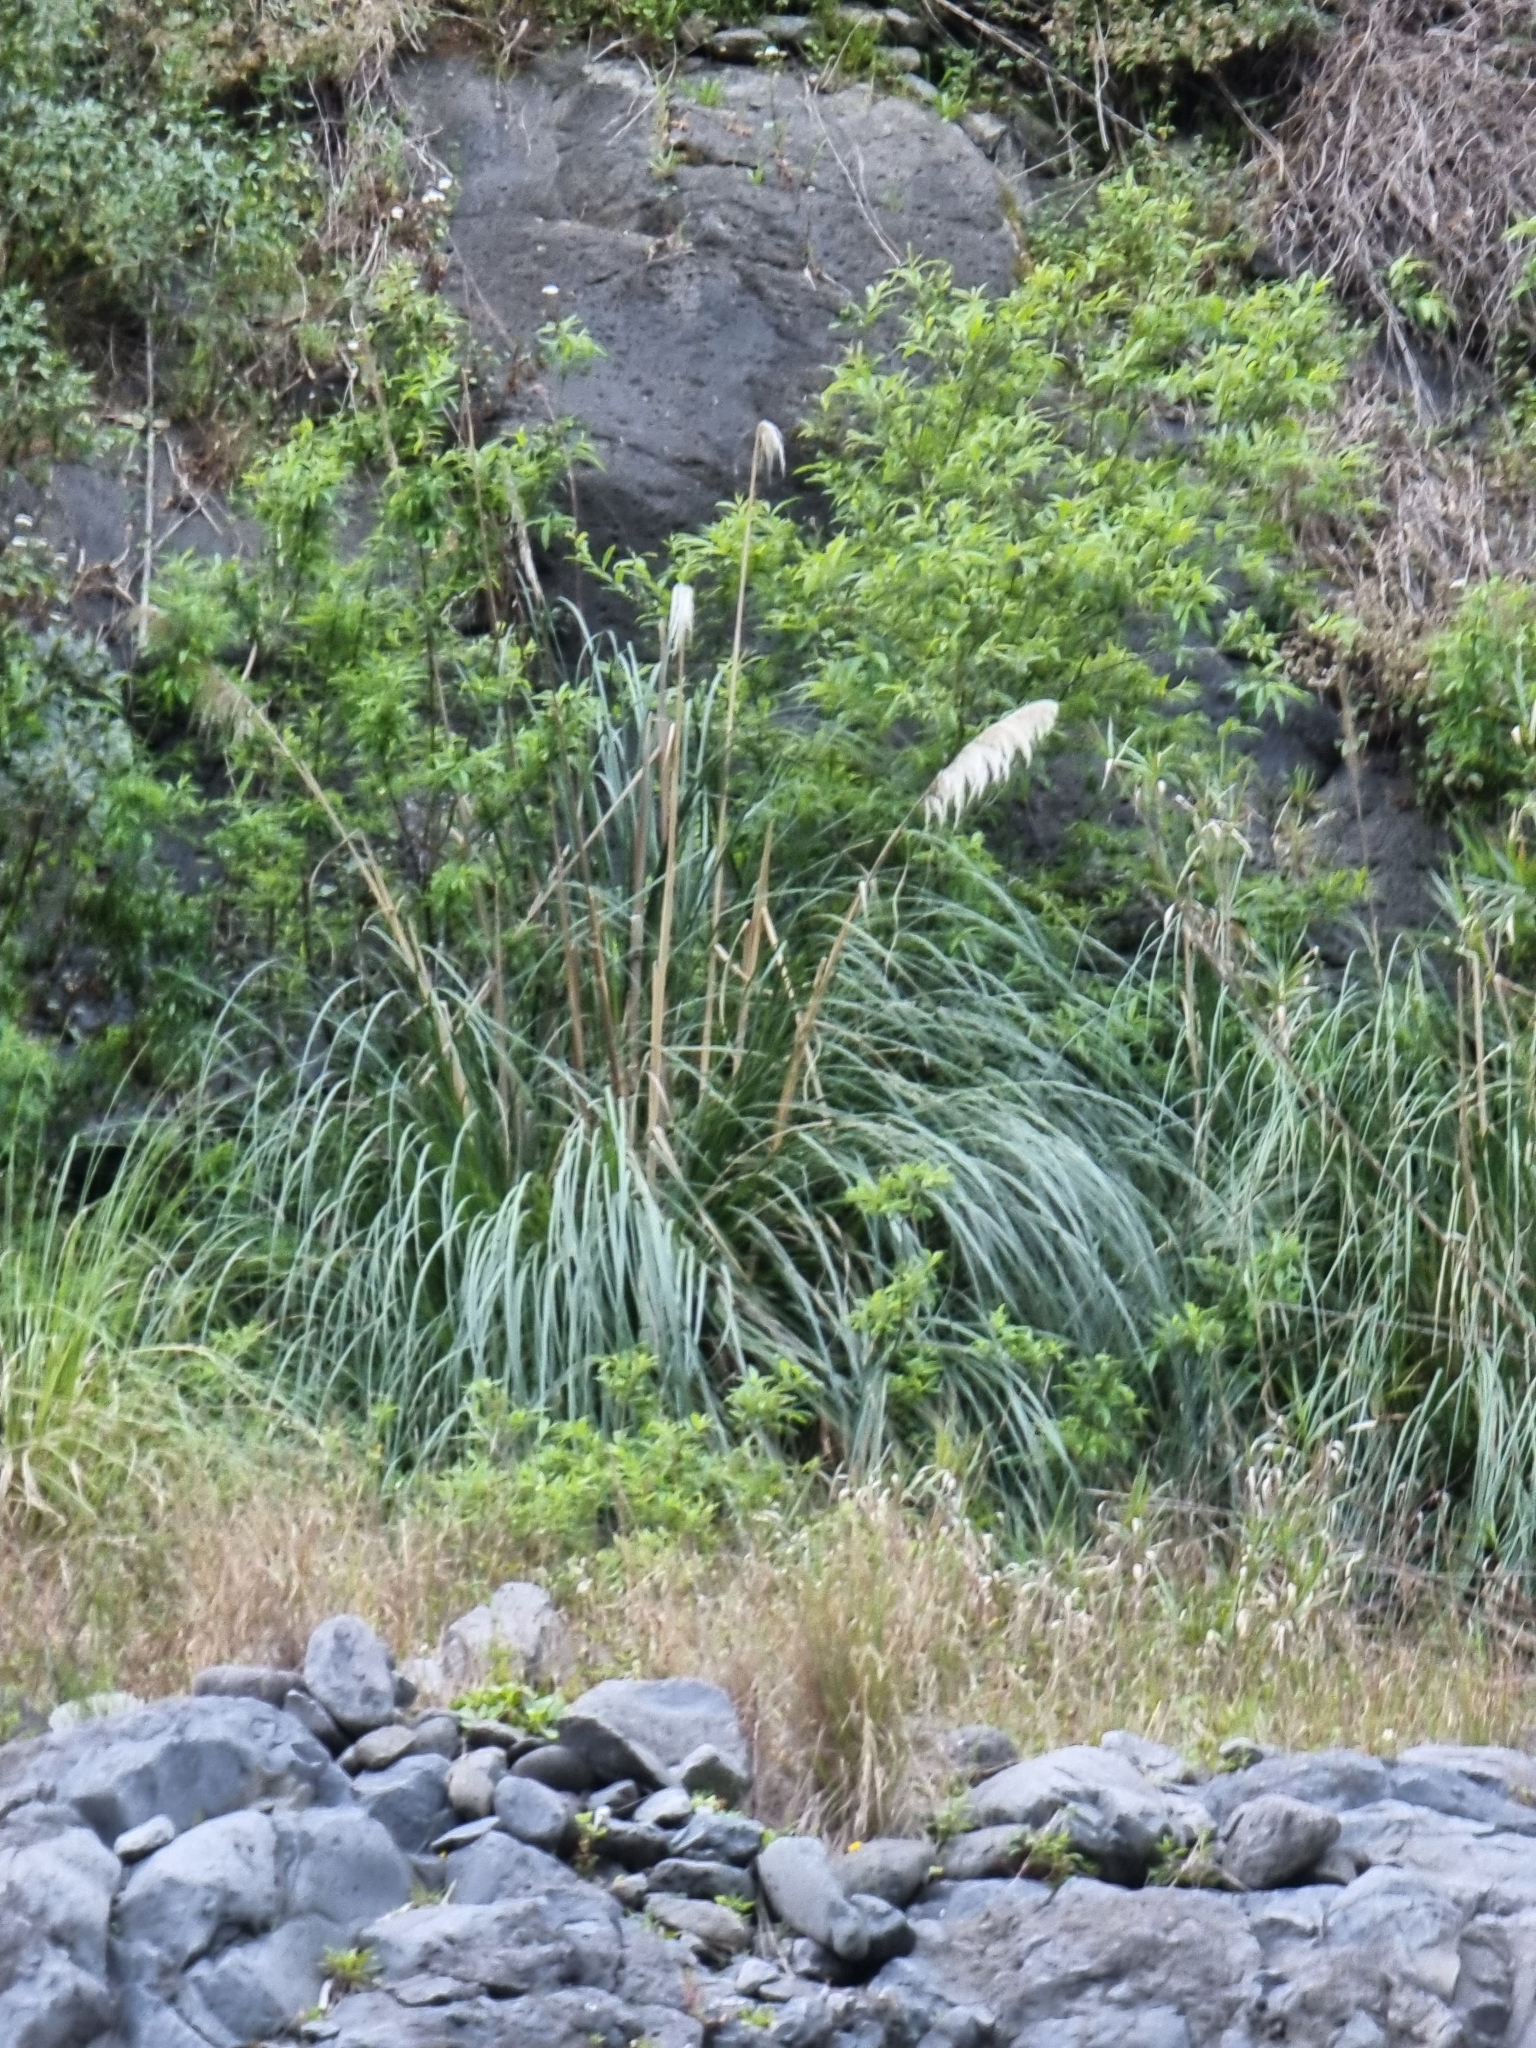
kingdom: Plantae
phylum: Tracheophyta
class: Liliopsida
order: Poales
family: Poaceae
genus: Cortaderia
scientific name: Cortaderia selloana
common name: Uruguayan pampas grass
